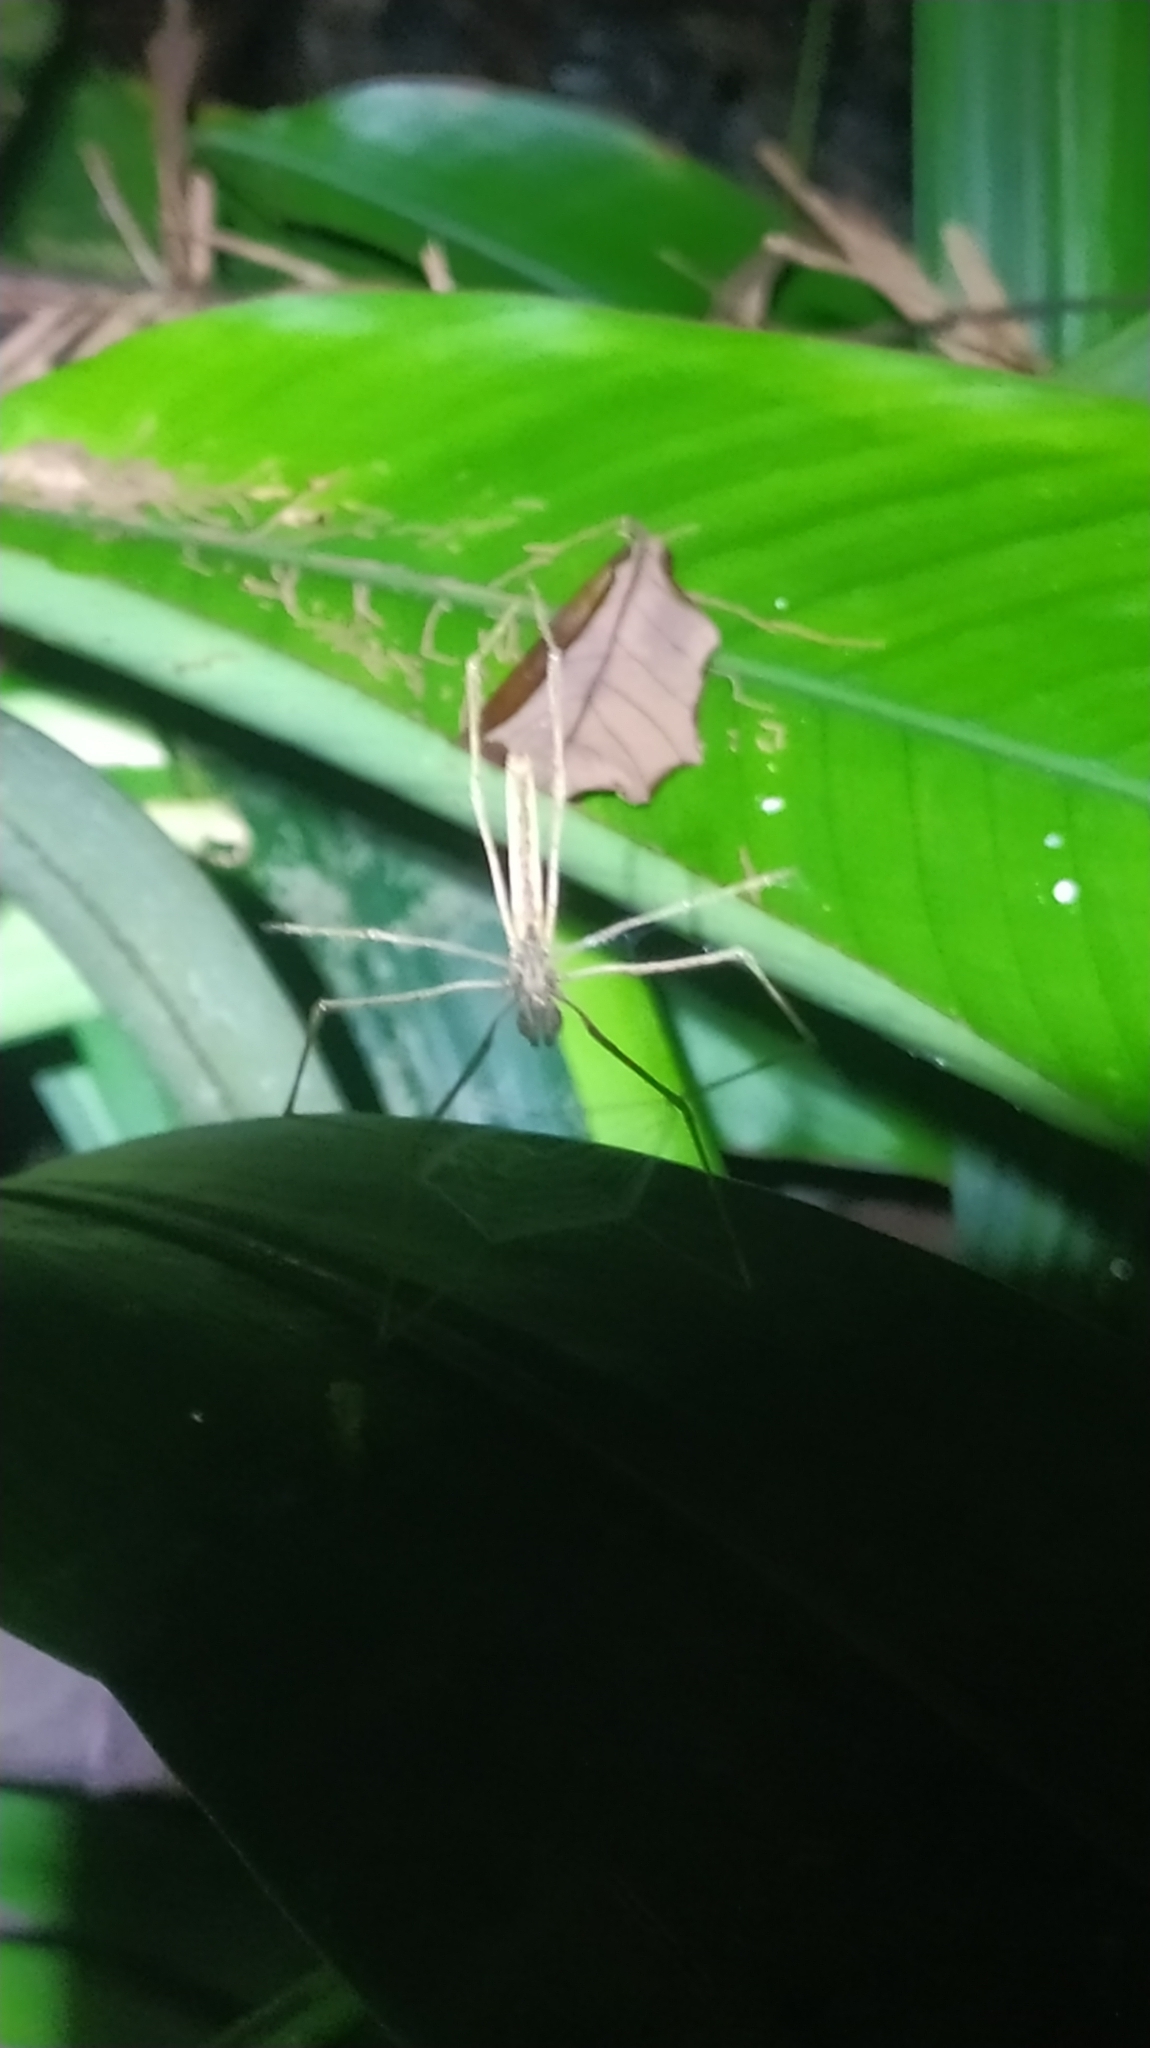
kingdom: Animalia
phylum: Arthropoda
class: Arachnida
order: Araneae
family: Deinopidae
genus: Deinopis
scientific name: Deinopis
